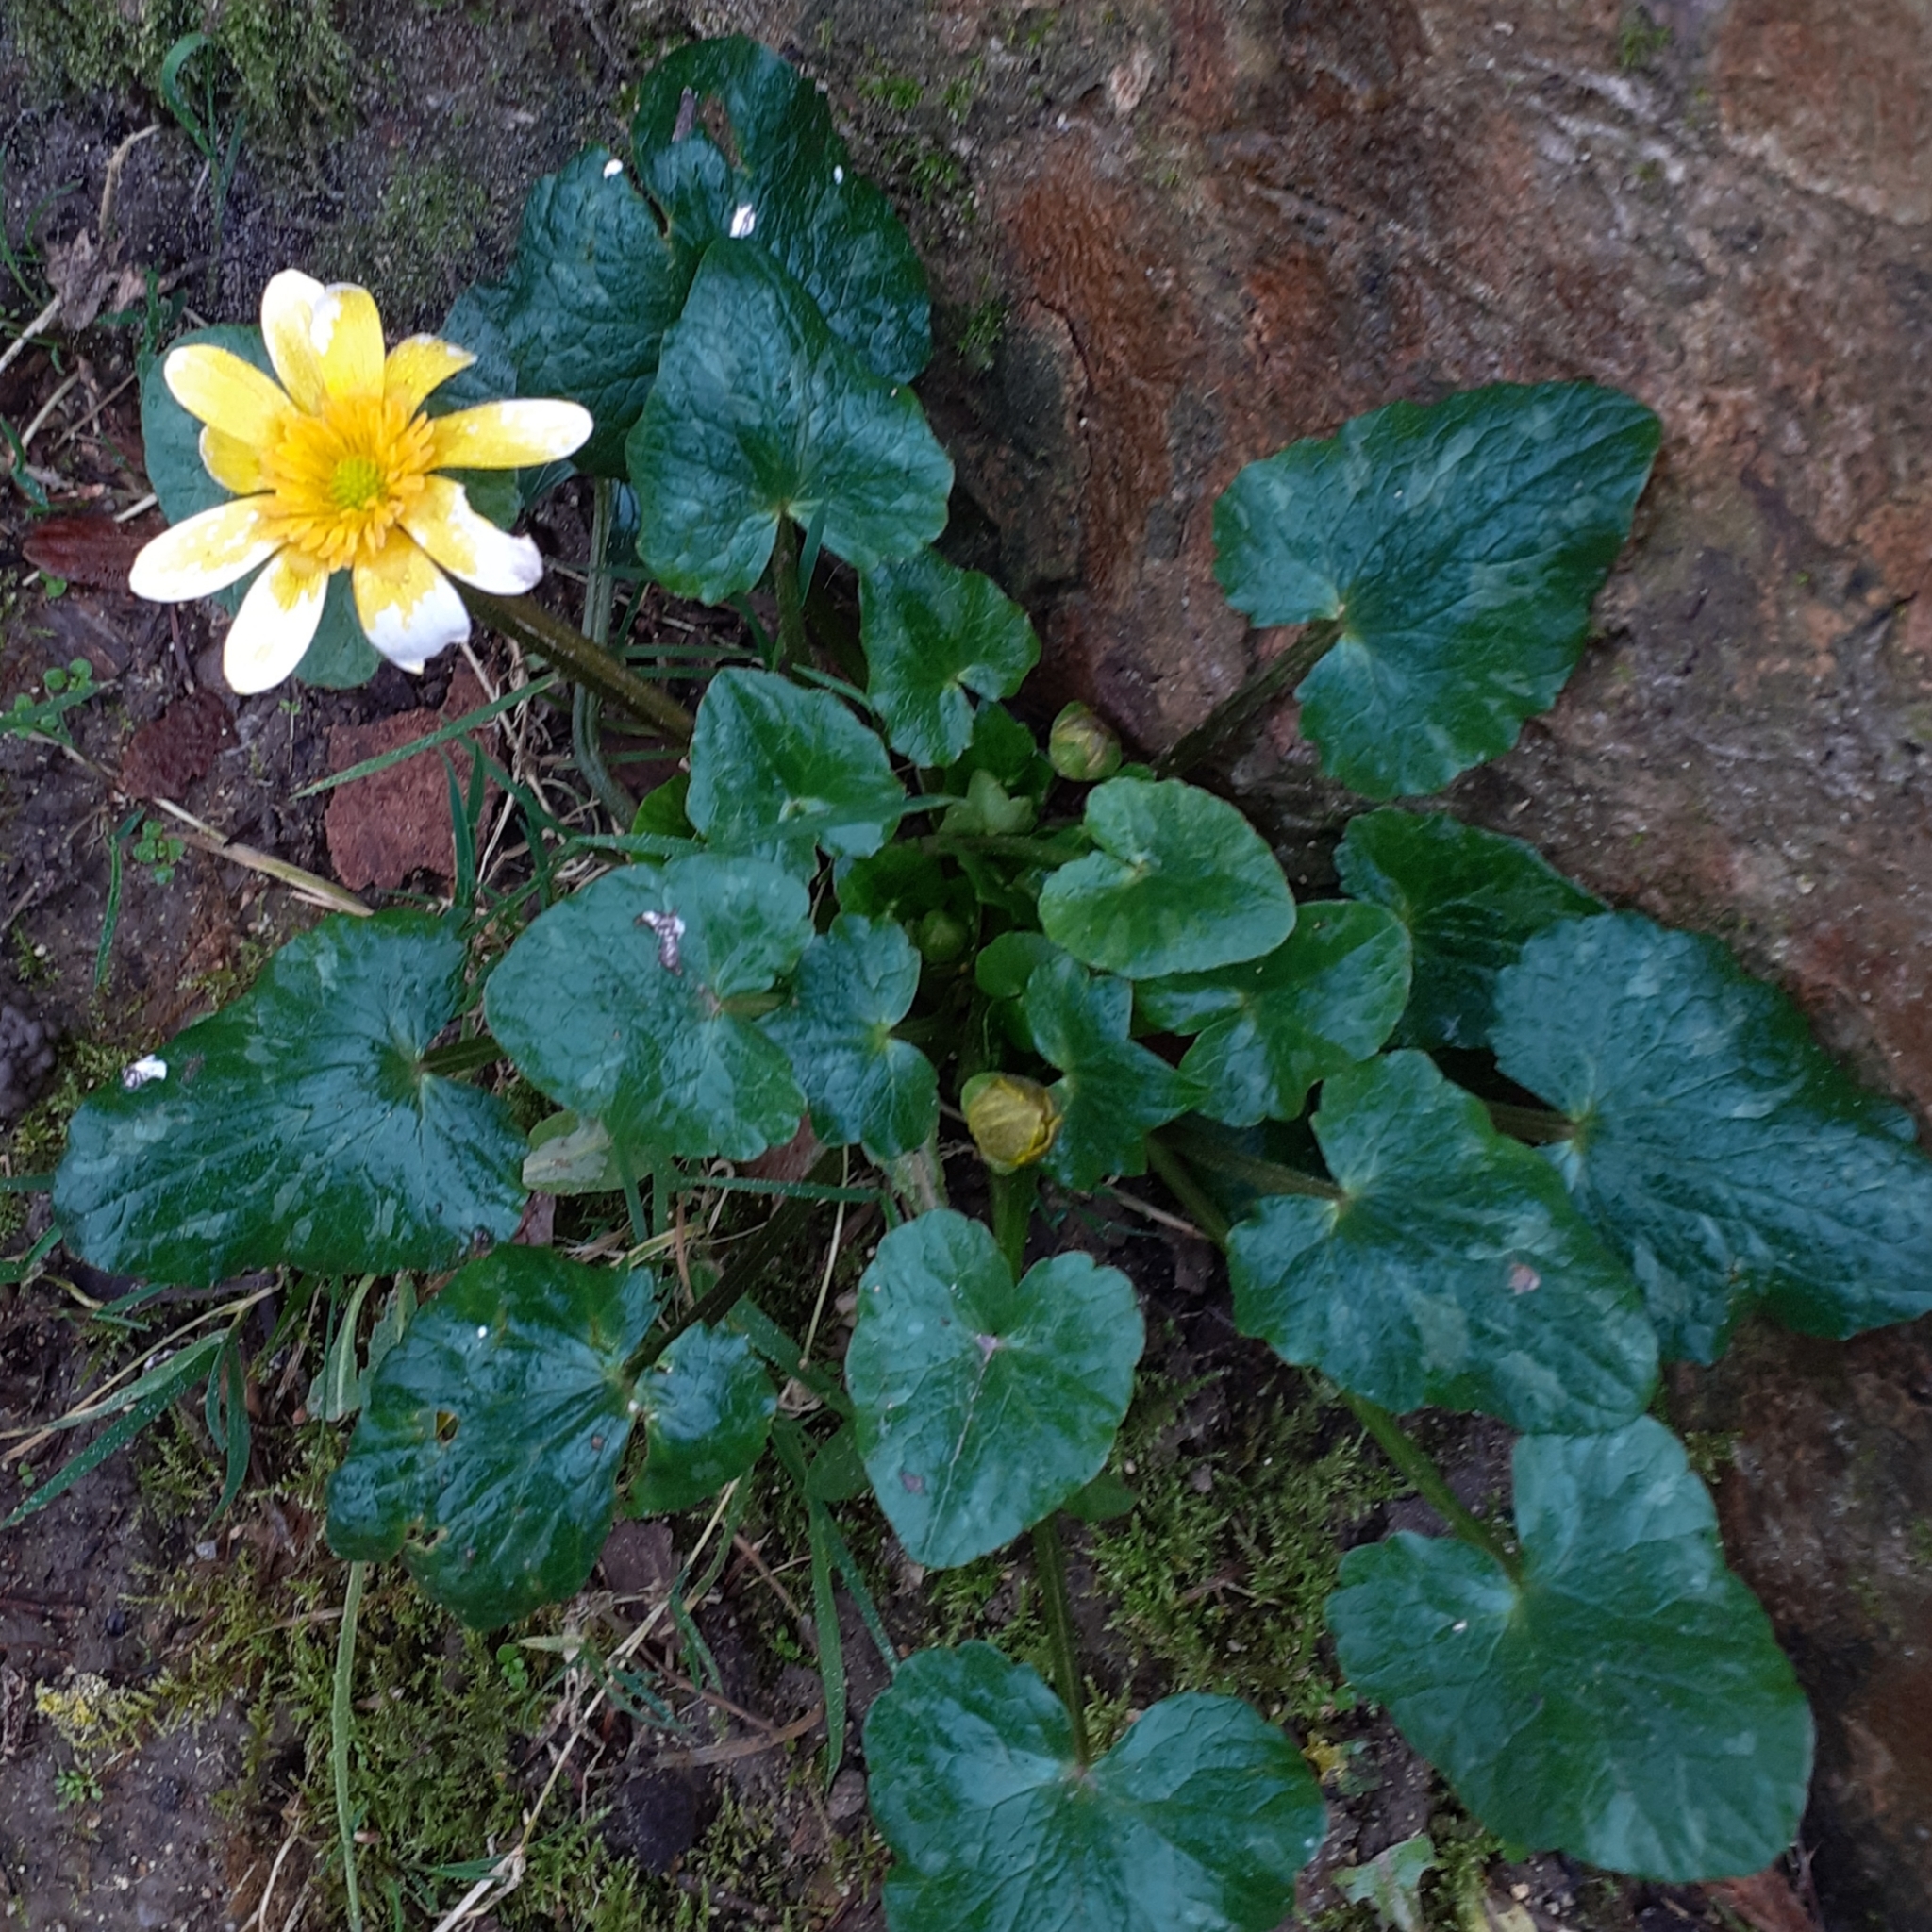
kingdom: Plantae
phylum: Tracheophyta
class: Magnoliopsida
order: Ranunculales
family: Ranunculaceae
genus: Ficaria
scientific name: Ficaria verna
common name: Lesser celandine
